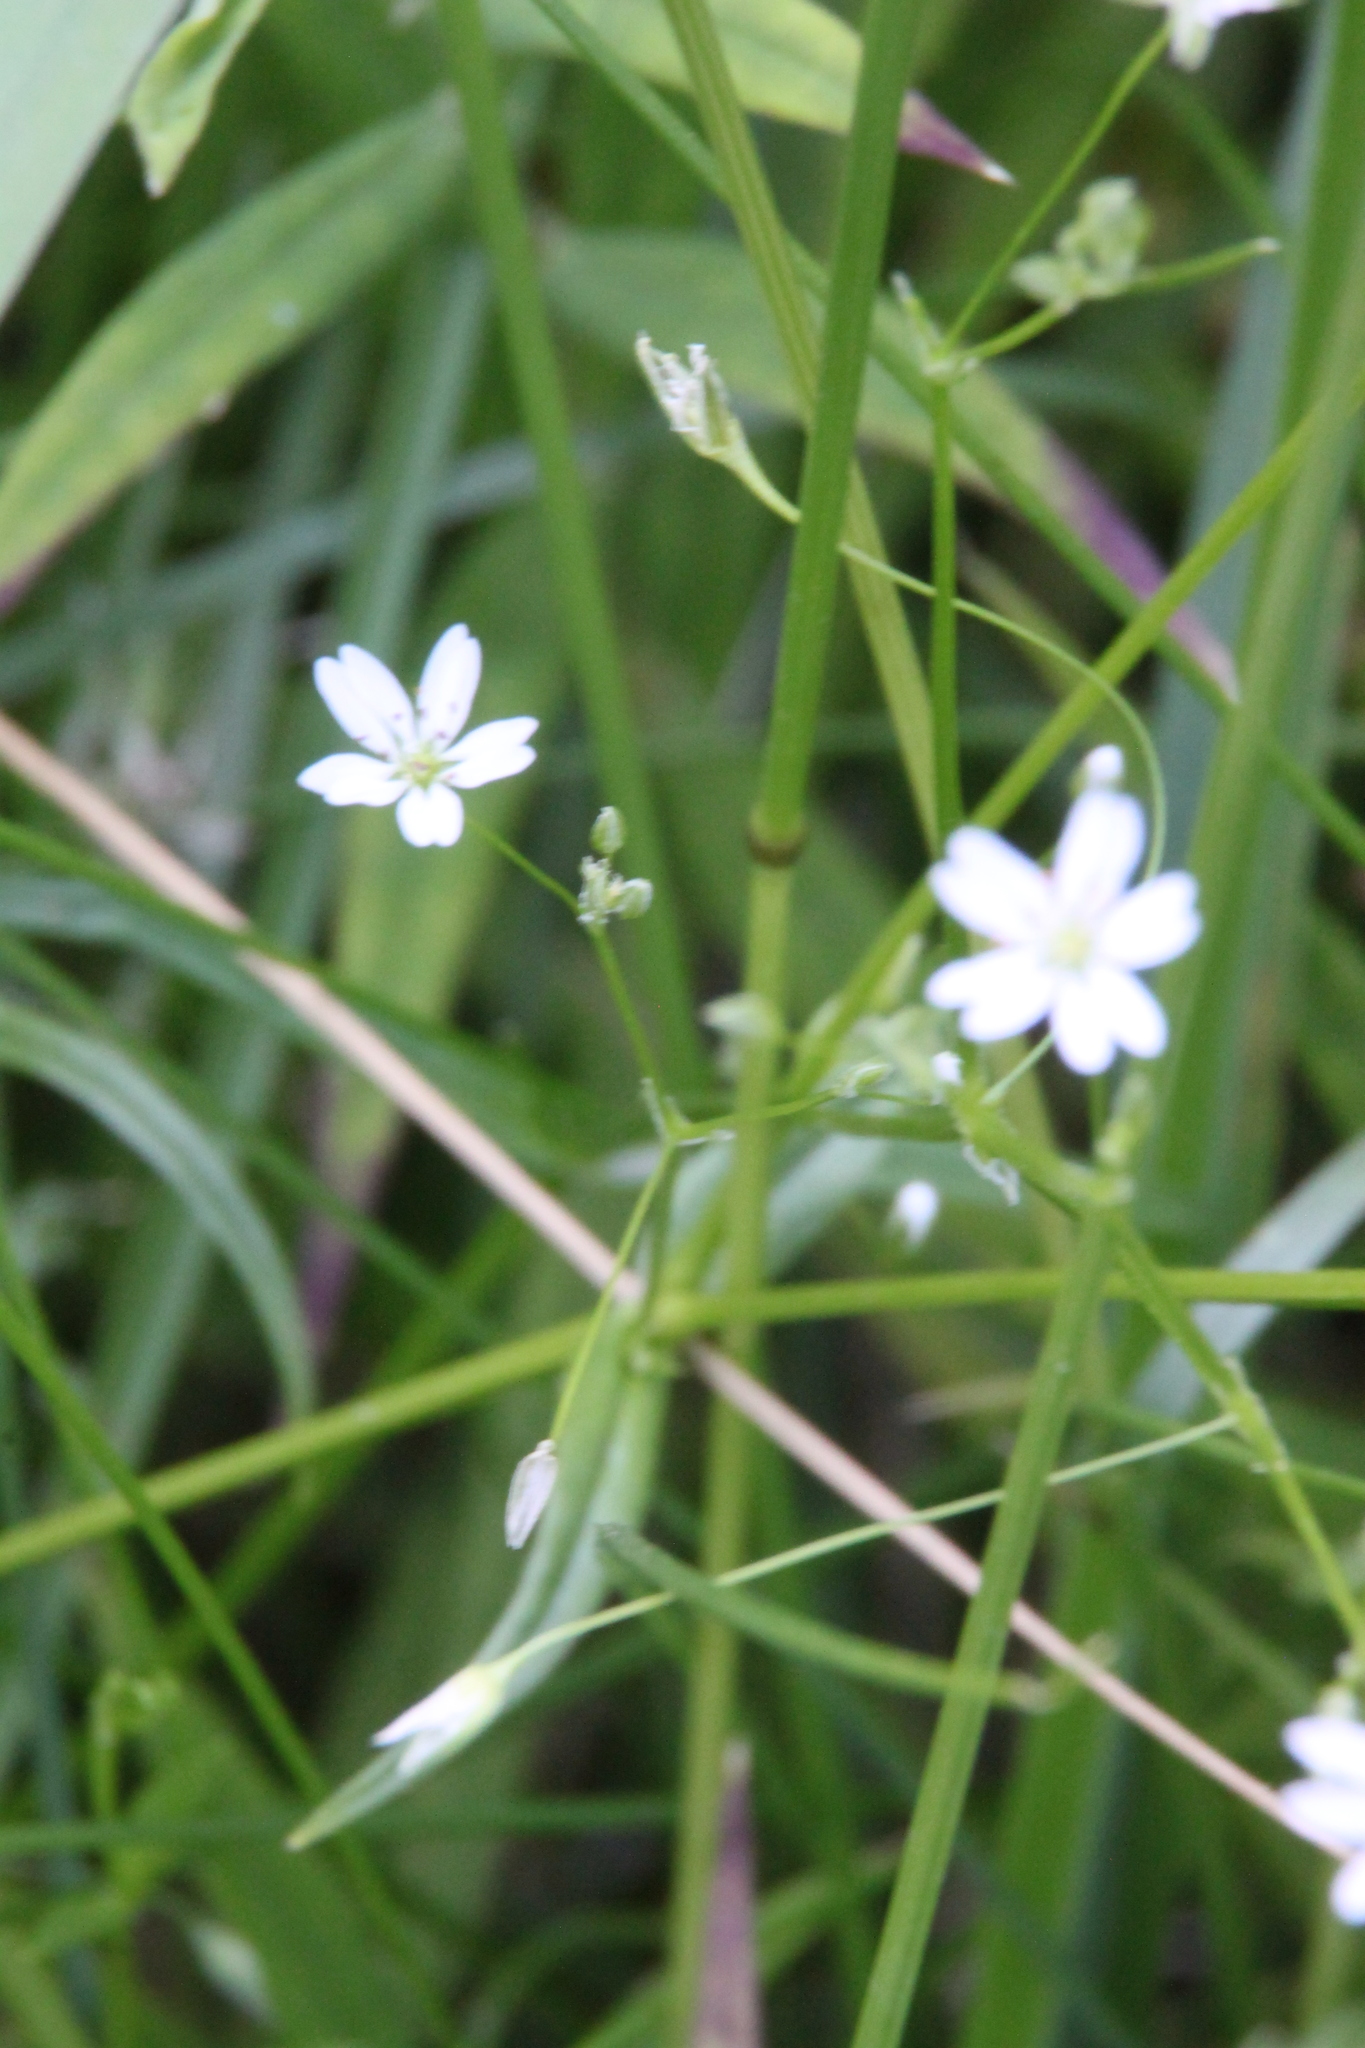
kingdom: Plantae
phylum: Tracheophyta
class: Magnoliopsida
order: Caryophyllales
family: Caryophyllaceae
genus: Stellaria
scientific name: Stellaria graminea
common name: Grass-like starwort
